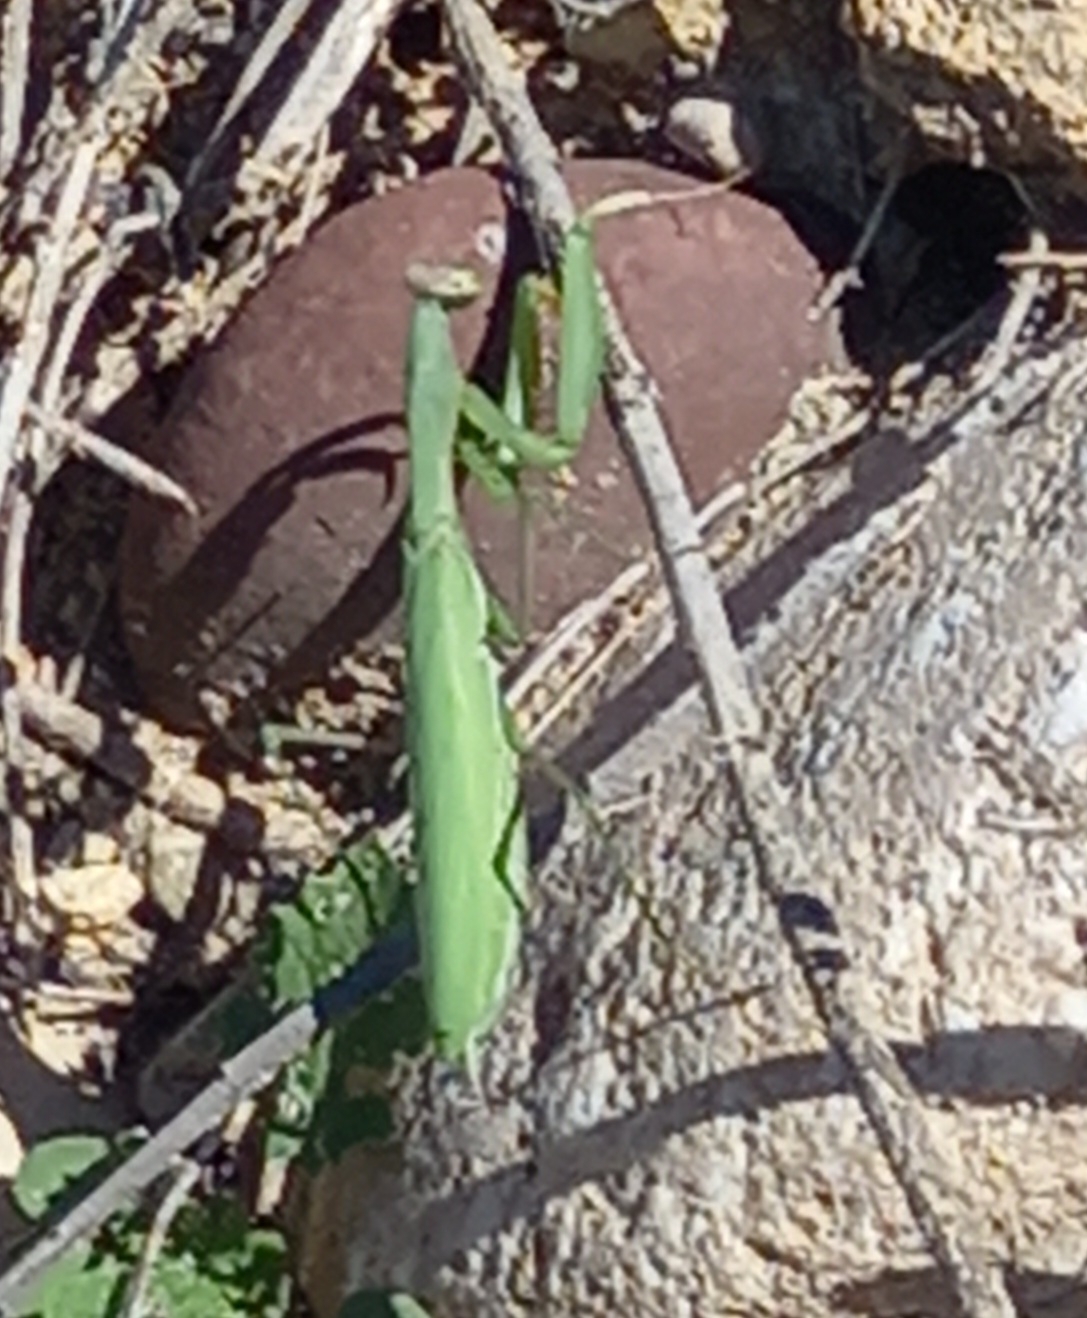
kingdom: Animalia
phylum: Arthropoda
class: Insecta
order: Mantodea
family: Mantidae
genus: Mantis
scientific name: Mantis religiosa
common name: Praying mantis
